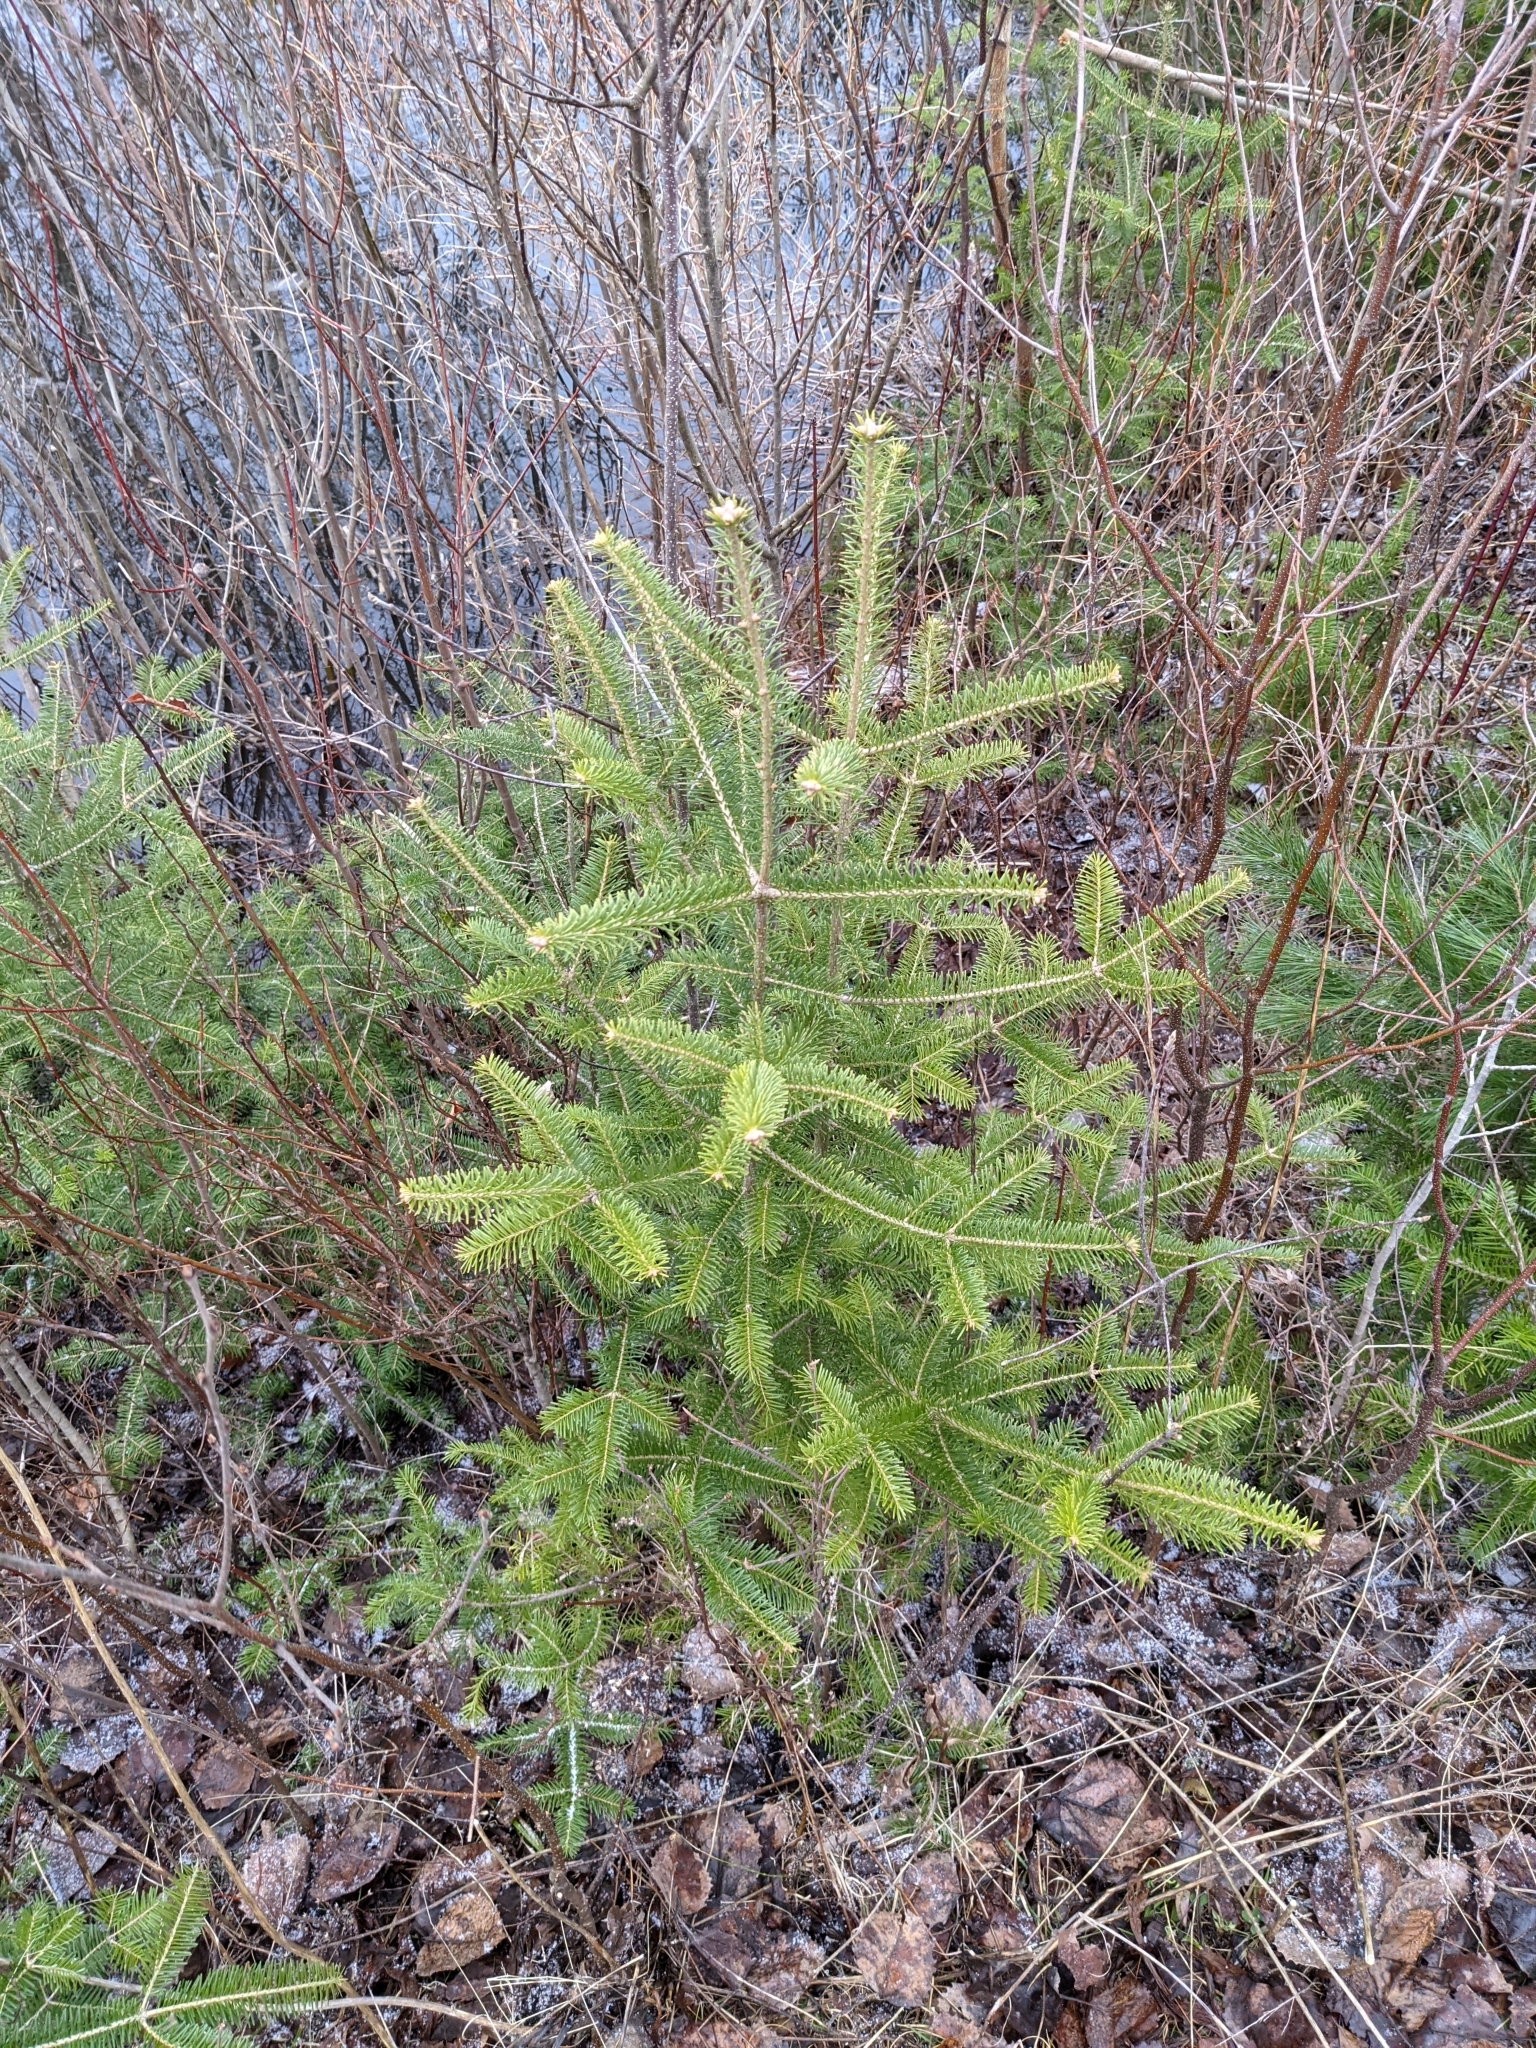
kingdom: Plantae
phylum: Tracheophyta
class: Pinopsida
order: Pinales
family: Pinaceae
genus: Abies
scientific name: Abies balsamea
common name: Balsam fir
